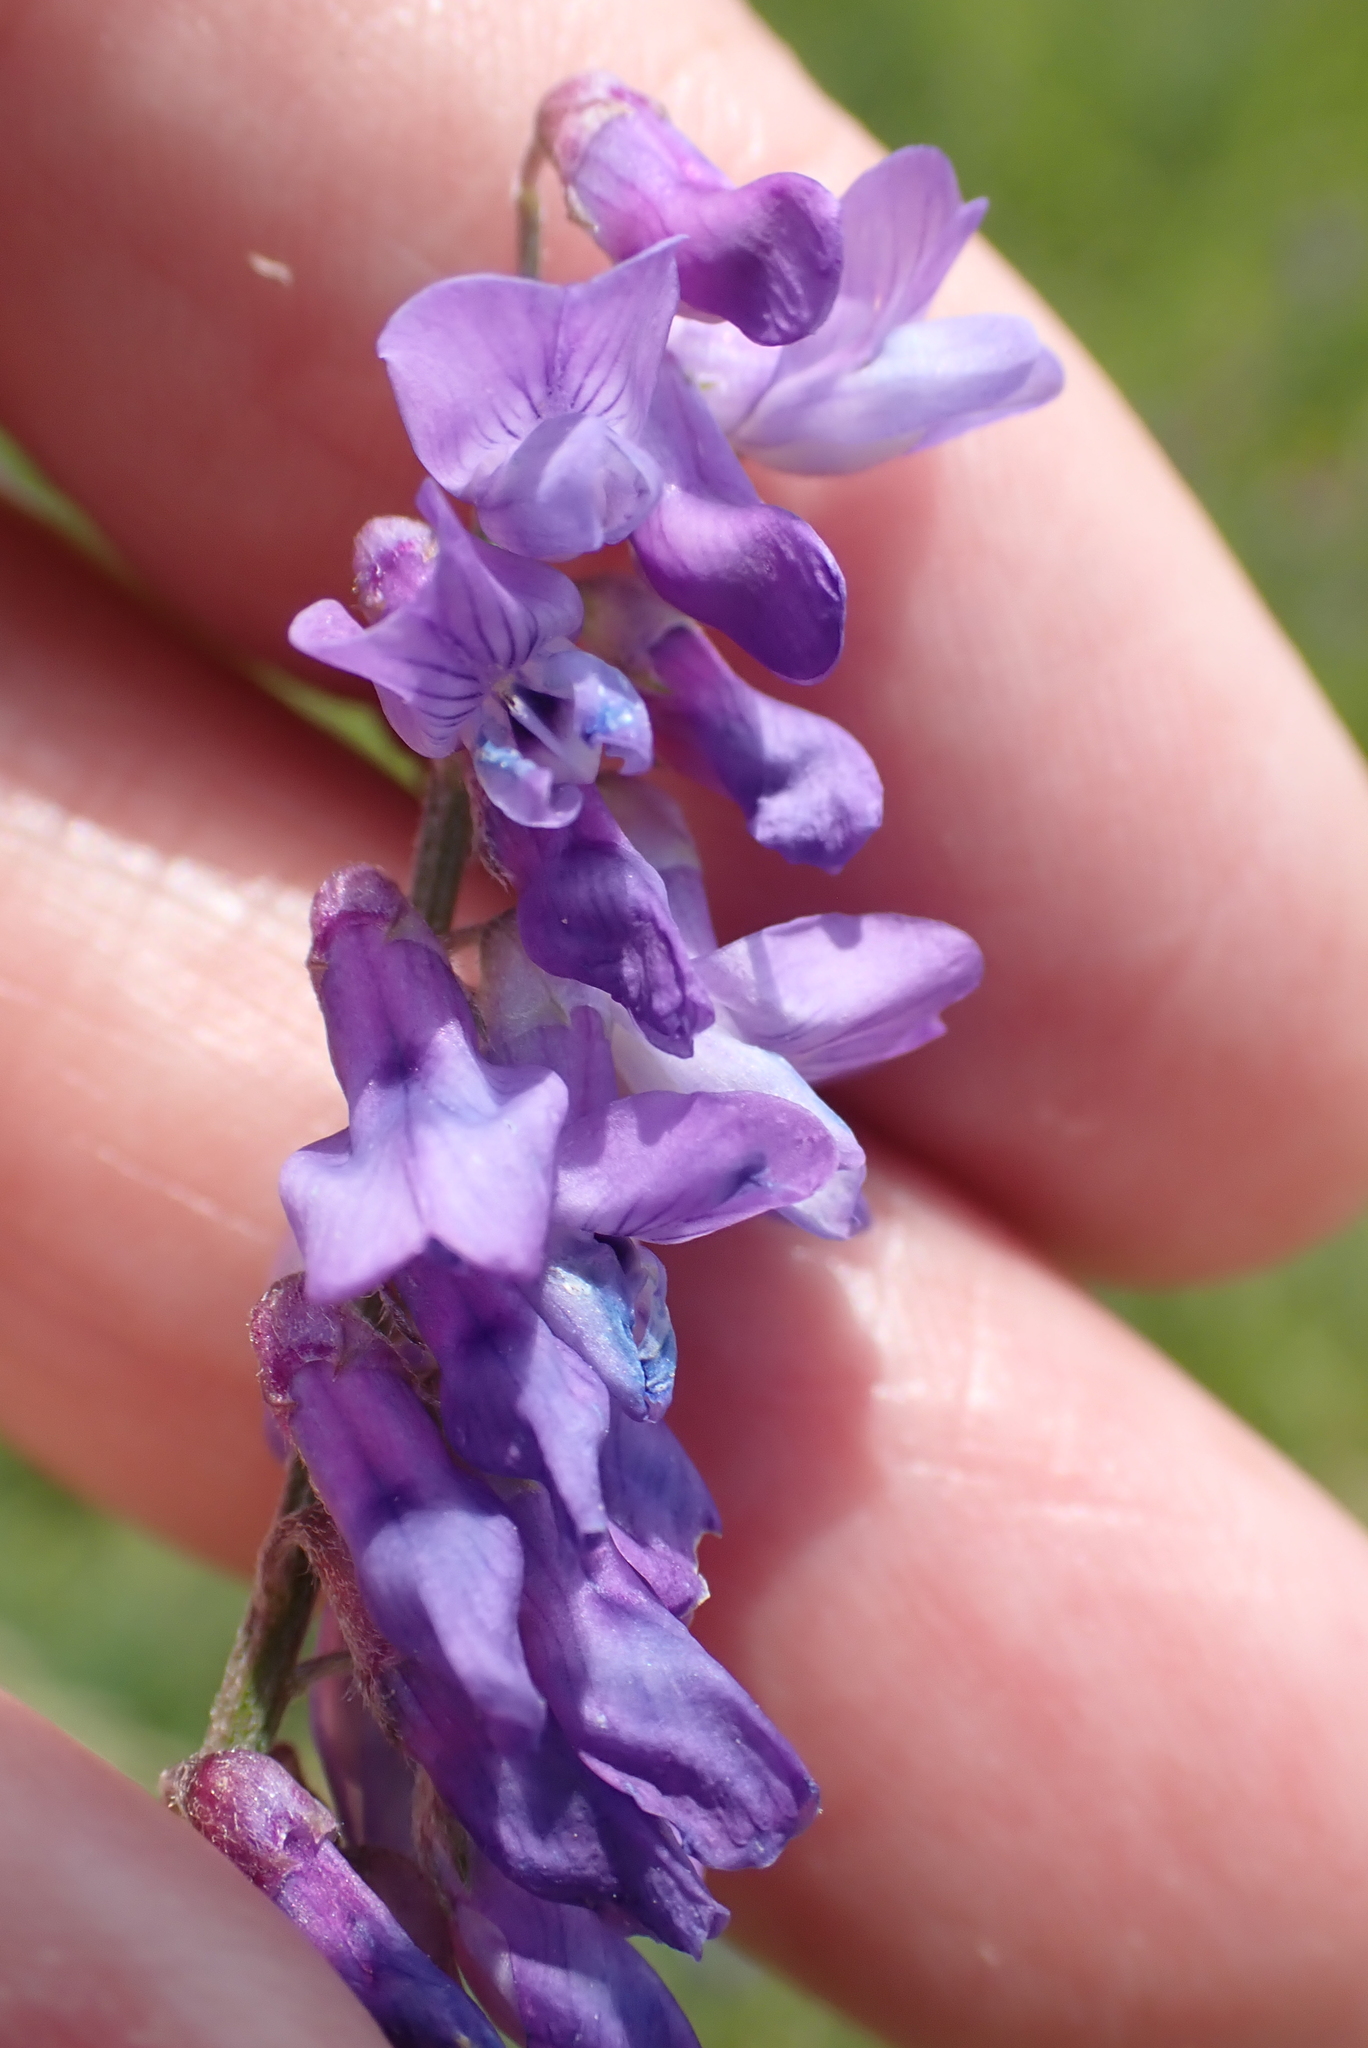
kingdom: Plantae
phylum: Tracheophyta
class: Magnoliopsida
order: Fabales
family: Fabaceae
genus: Vicia
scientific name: Vicia cracca
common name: Bird vetch
